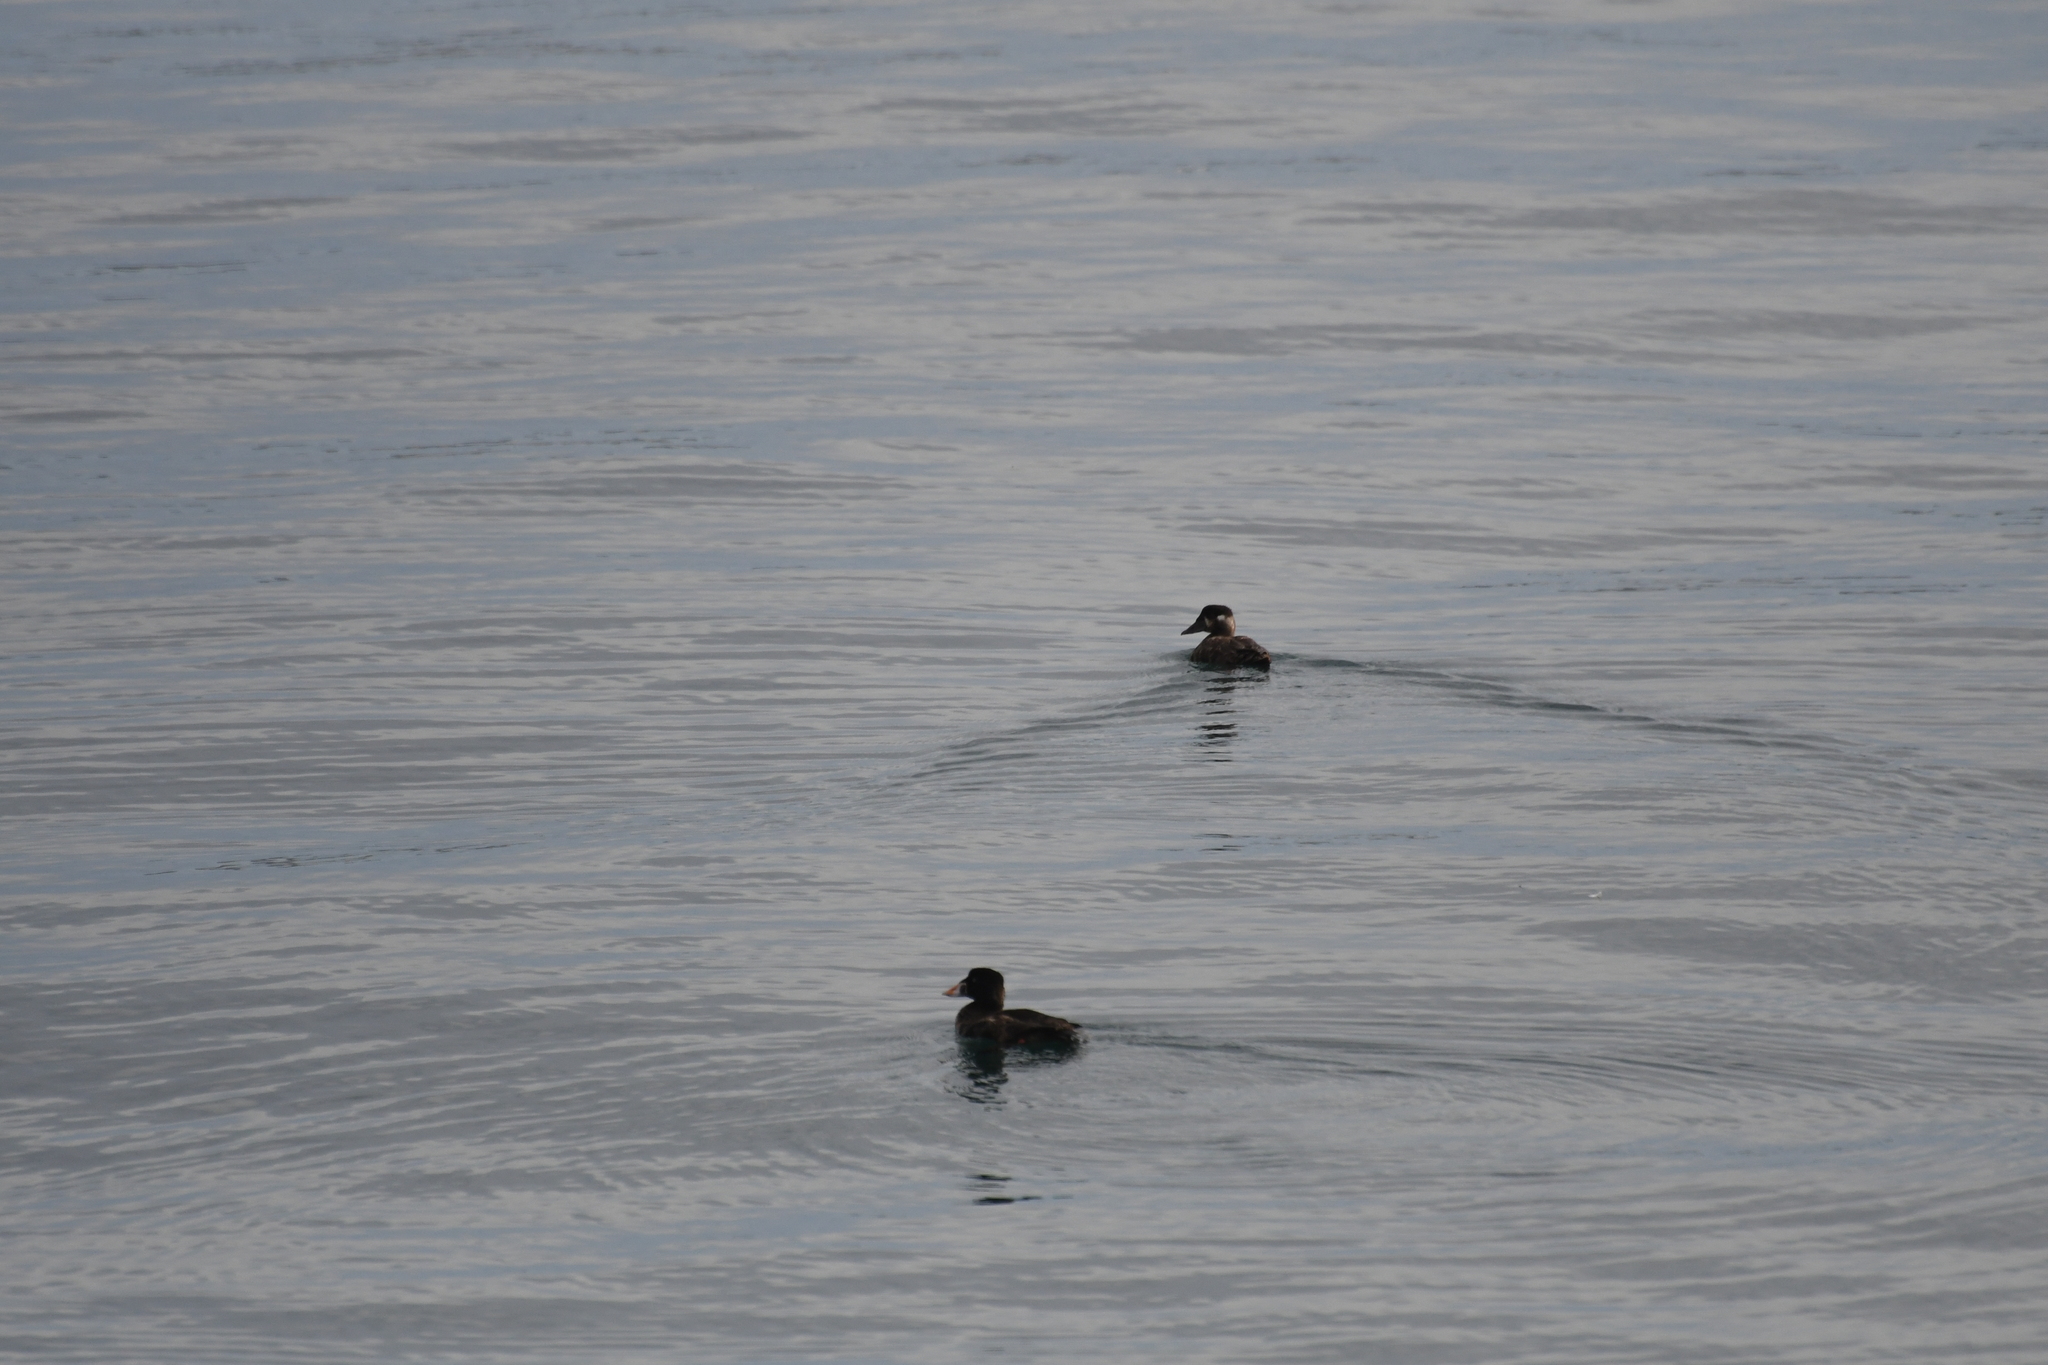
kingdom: Animalia
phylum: Chordata
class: Aves
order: Anseriformes
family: Anatidae
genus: Melanitta
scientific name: Melanitta perspicillata
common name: Surf scoter
